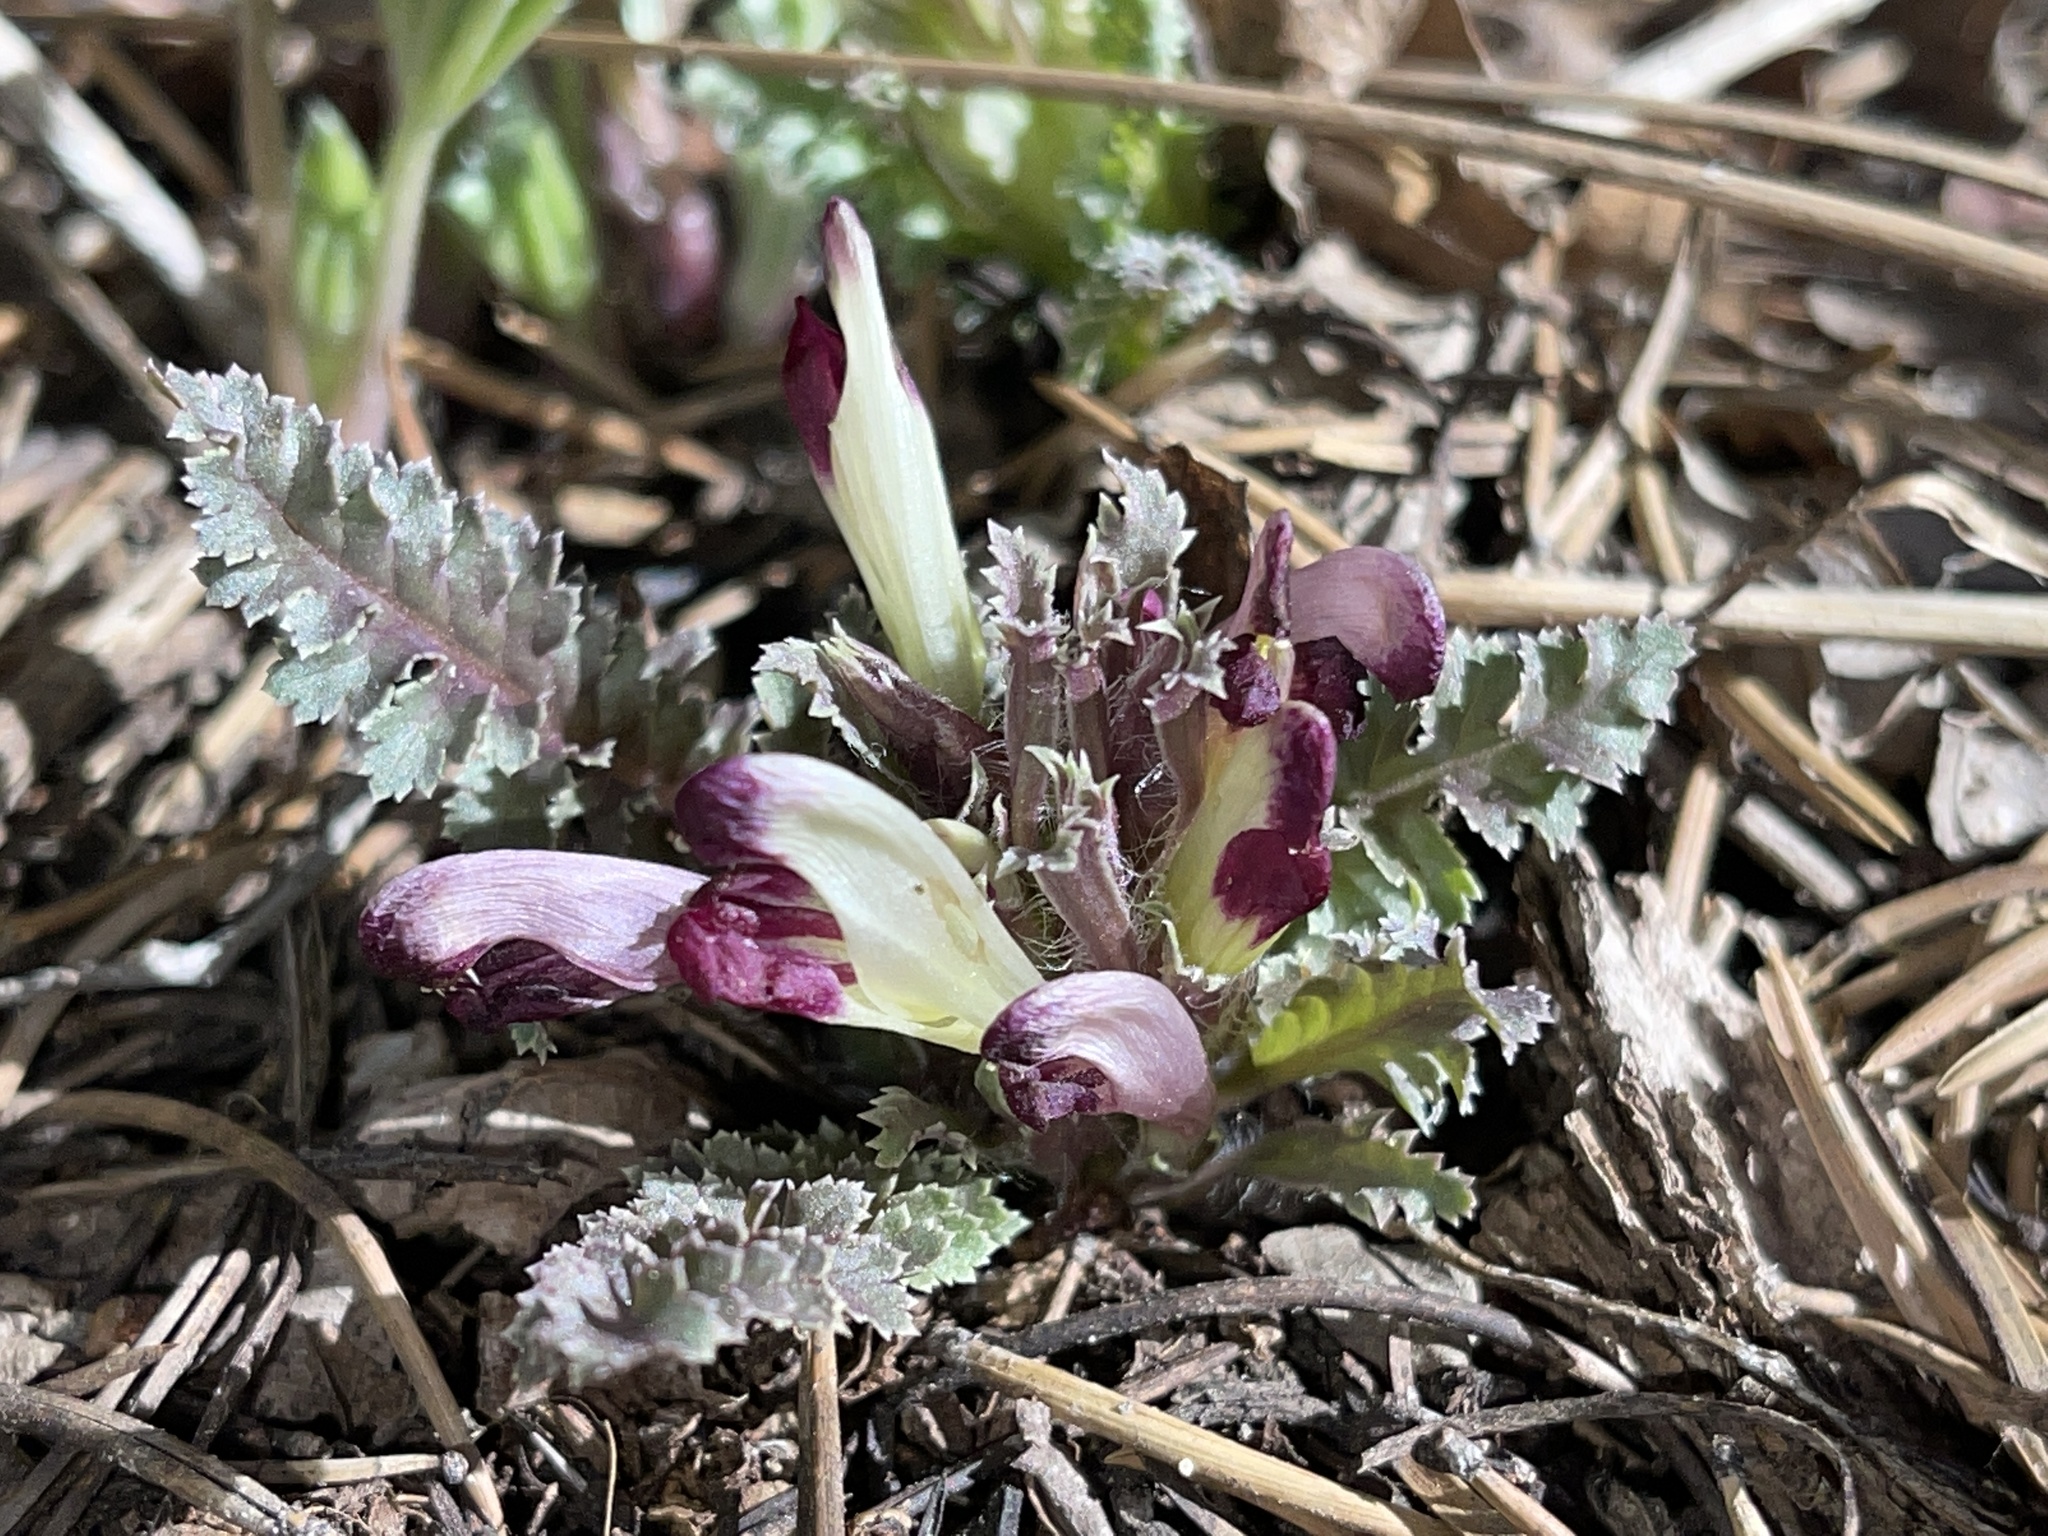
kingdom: Plantae
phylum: Tracheophyta
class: Magnoliopsida
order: Lamiales
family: Orobanchaceae
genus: Pedicularis
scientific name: Pedicularis centranthera
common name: Dwarf lousewort
